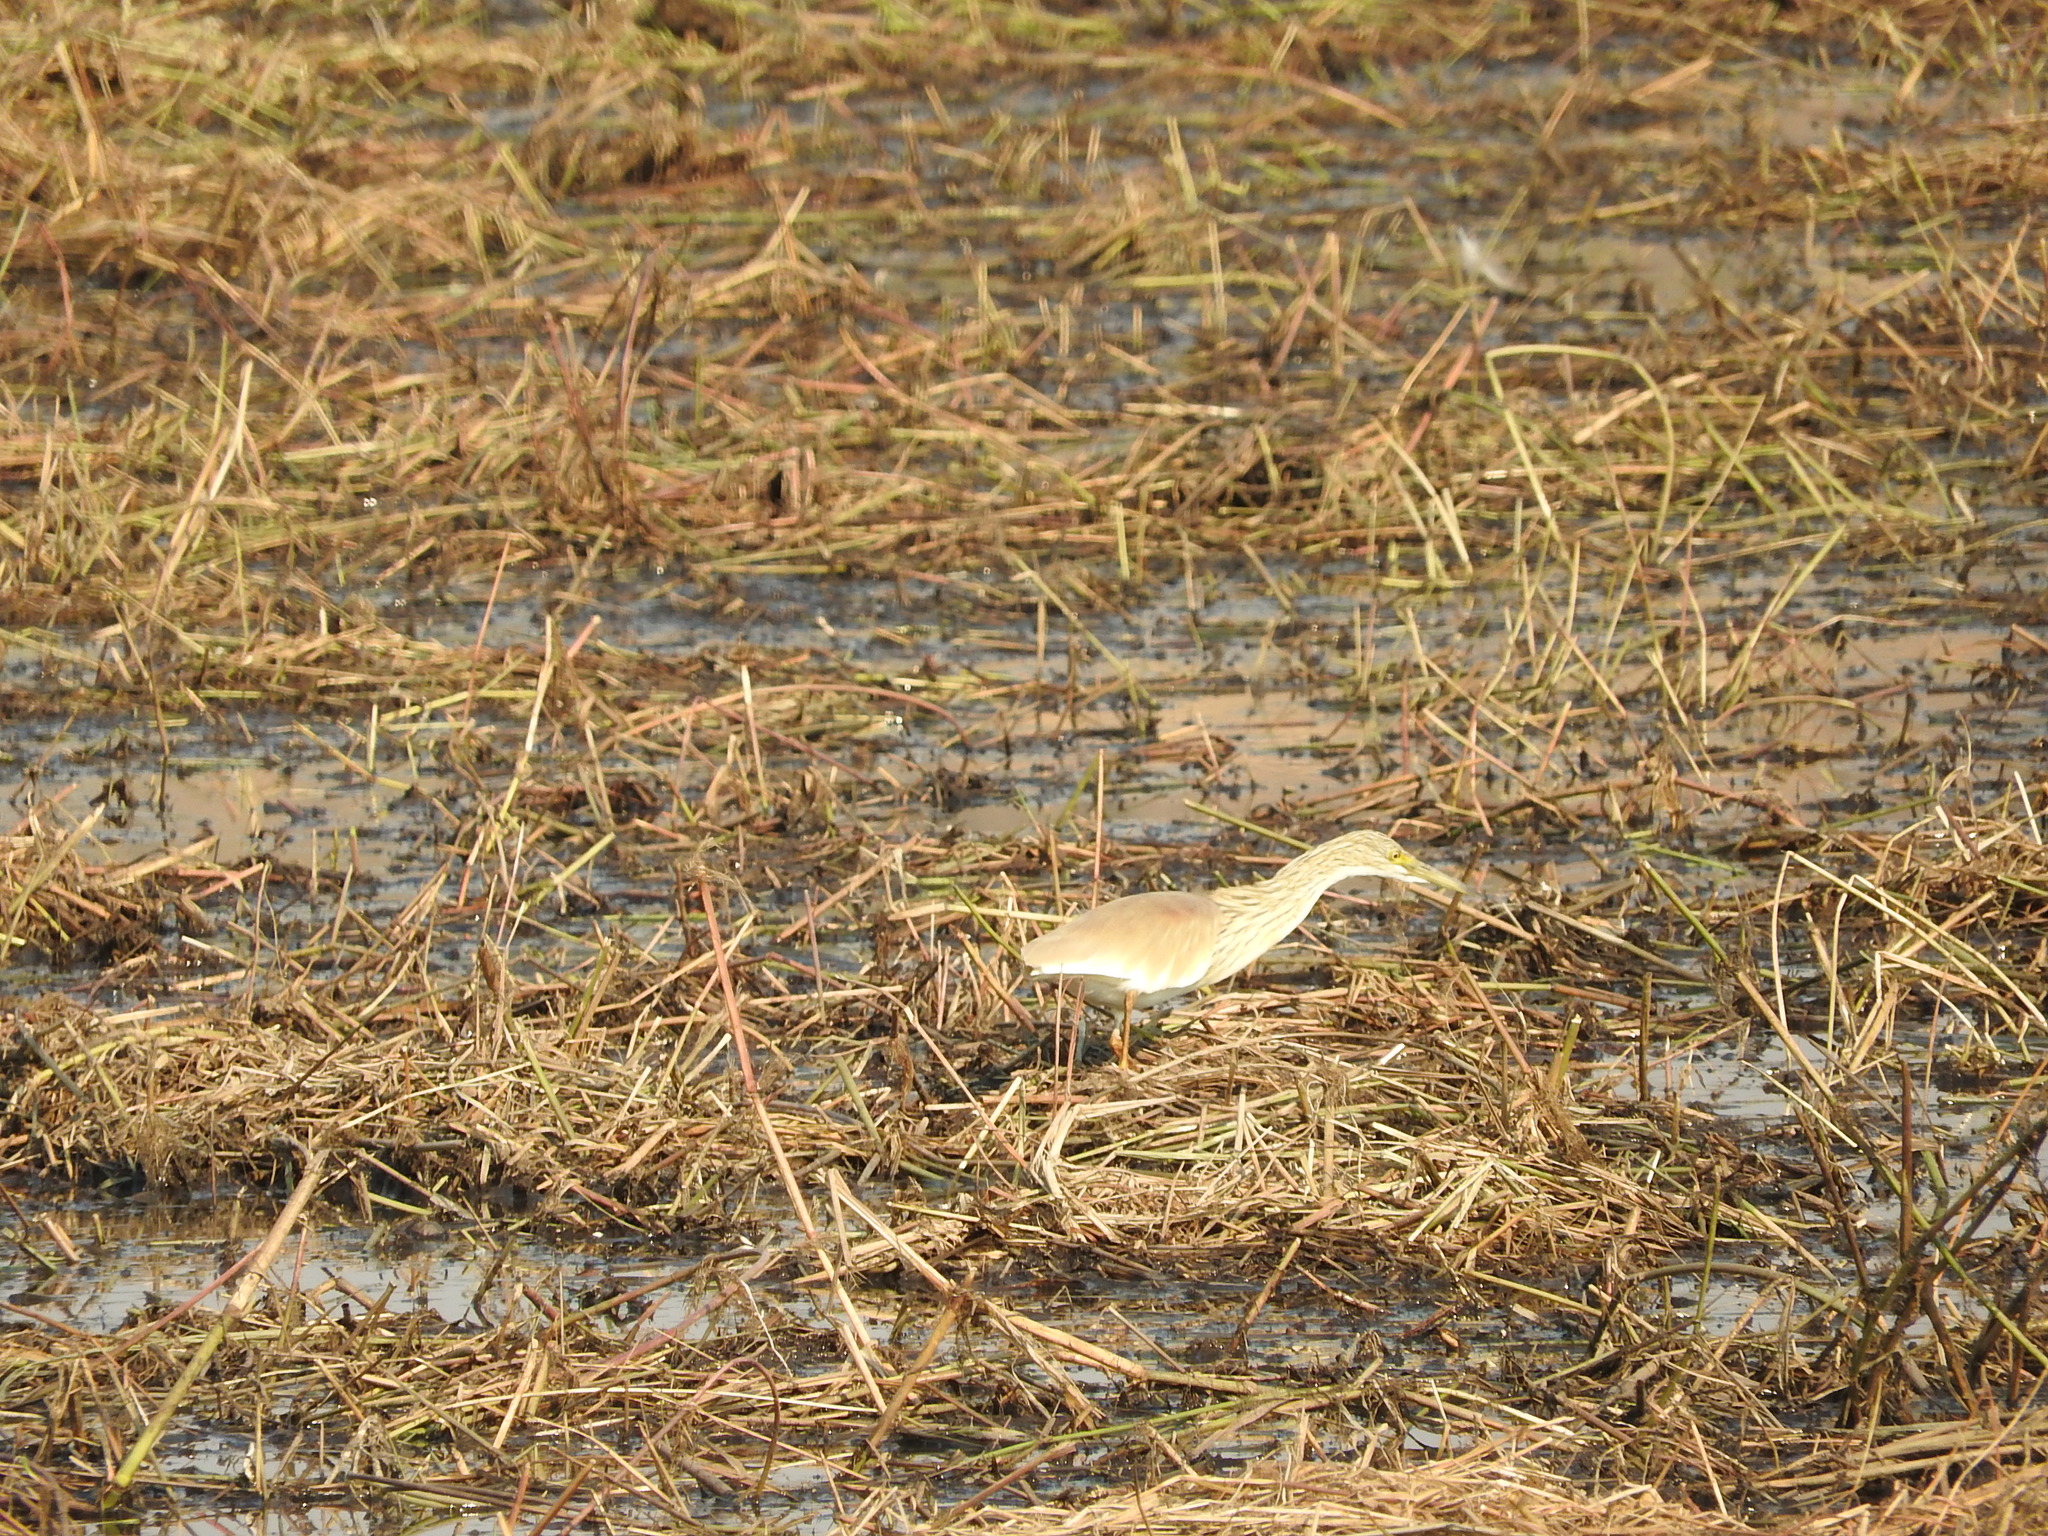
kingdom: Animalia
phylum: Chordata
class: Aves
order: Pelecaniformes
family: Ardeidae
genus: Ardeola
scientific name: Ardeola ralloides
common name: Squacco heron
